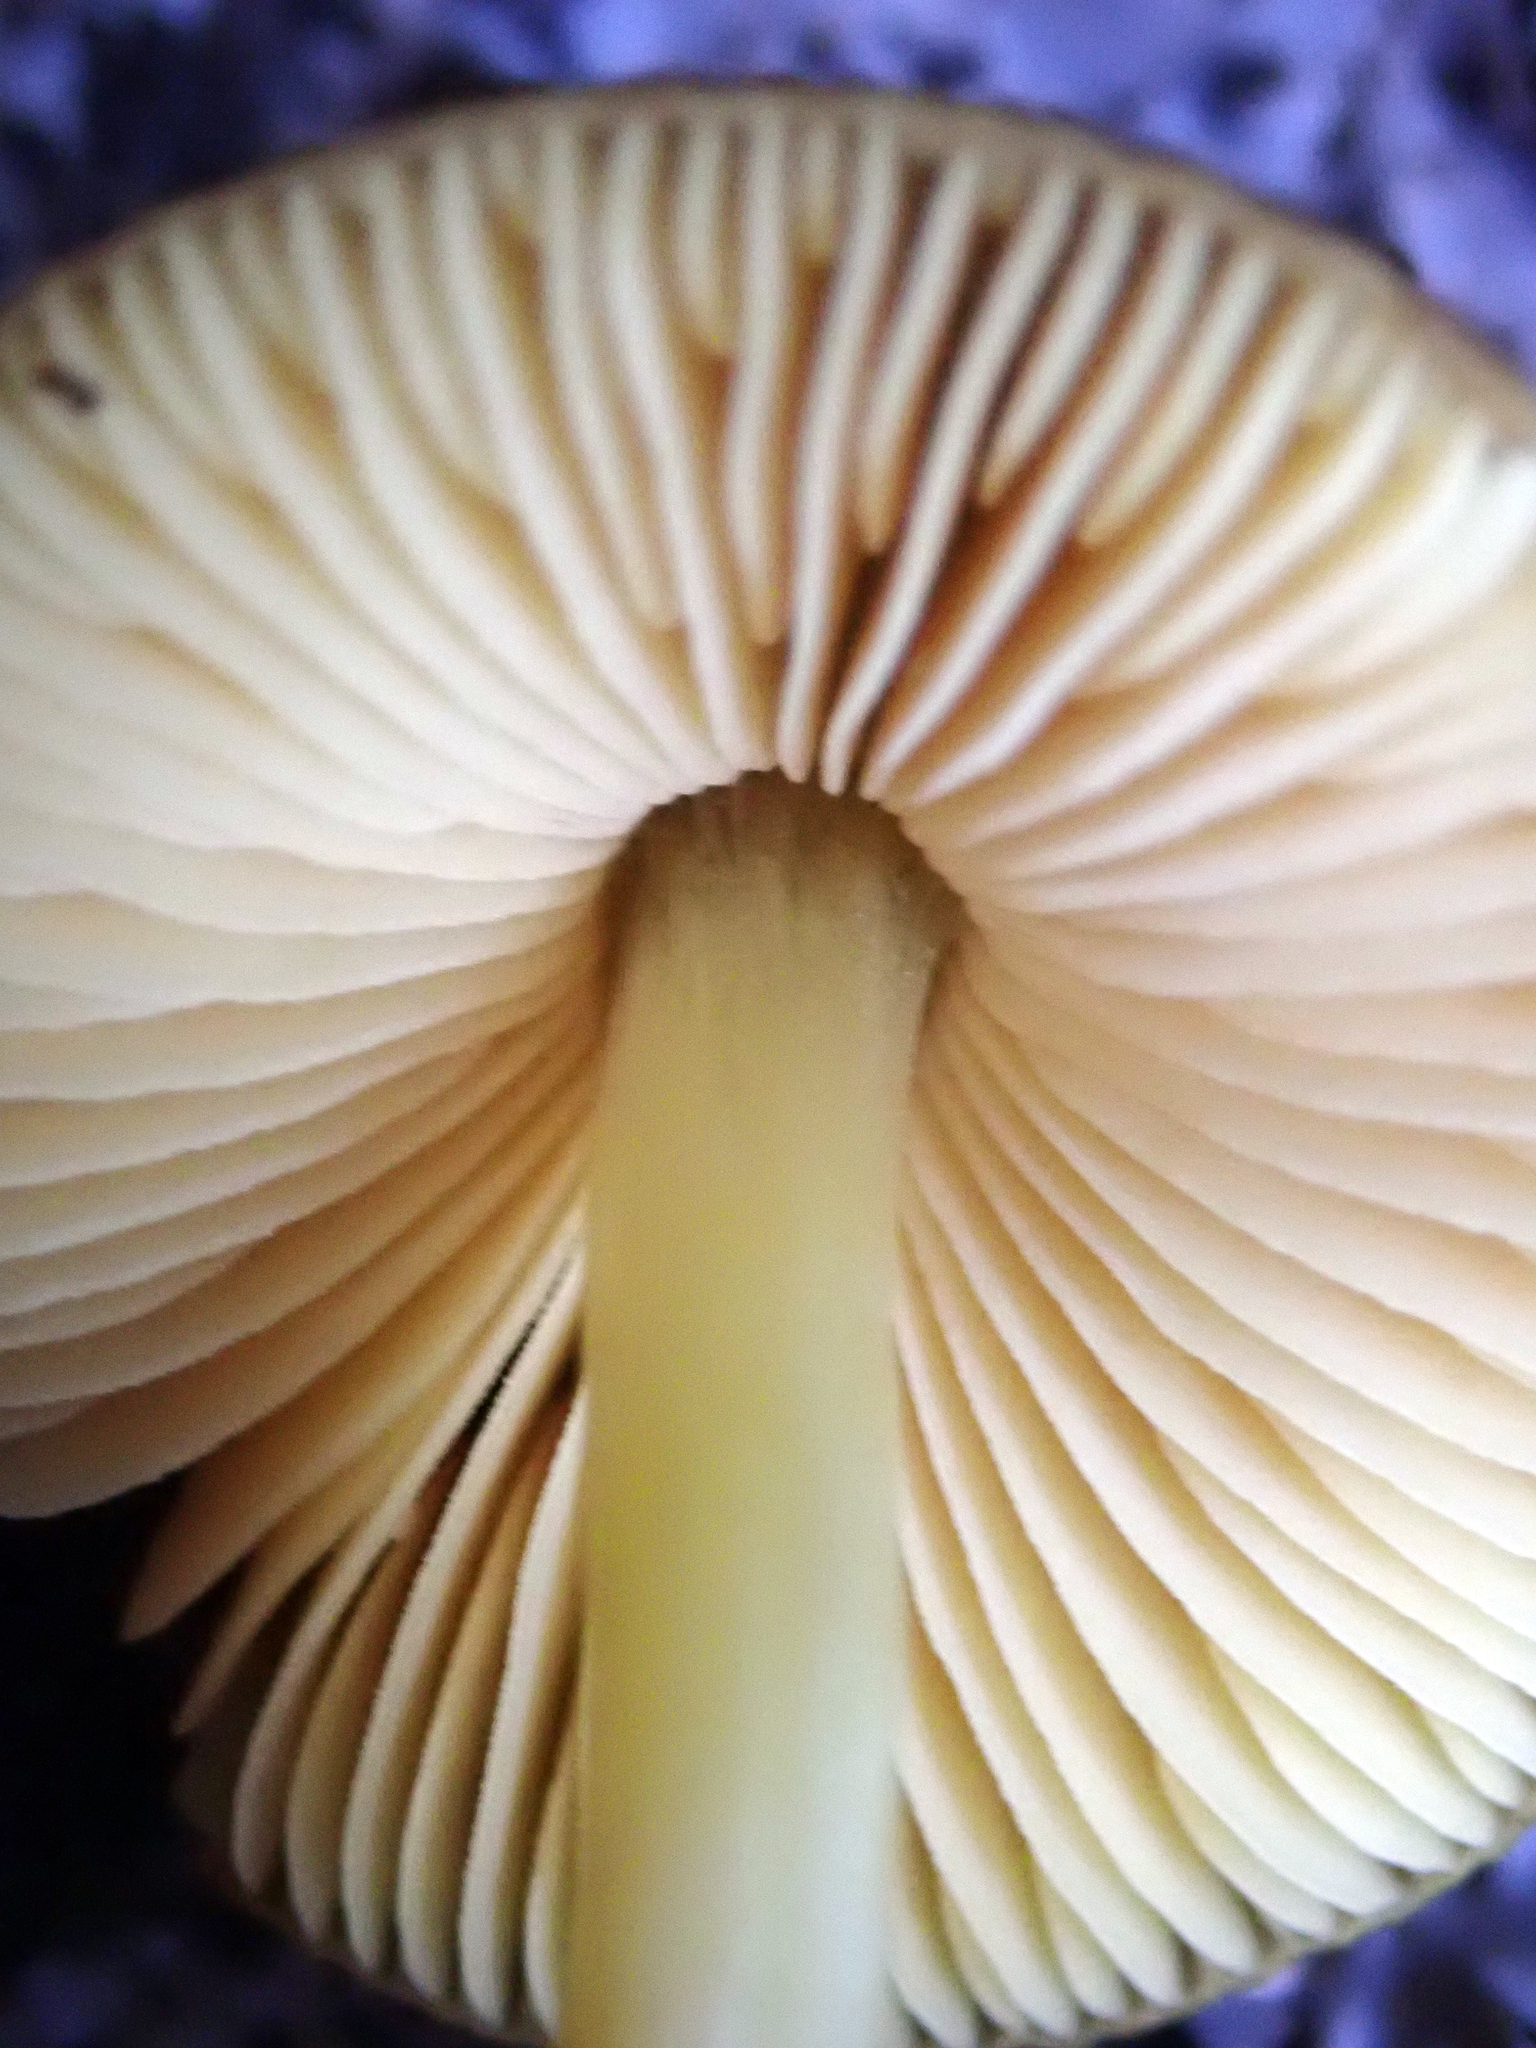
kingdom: Fungi
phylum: Basidiomycota
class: Agaricomycetes
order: Agaricales
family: Pluteaceae
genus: Pluteus
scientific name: Pluteus pauperculus
